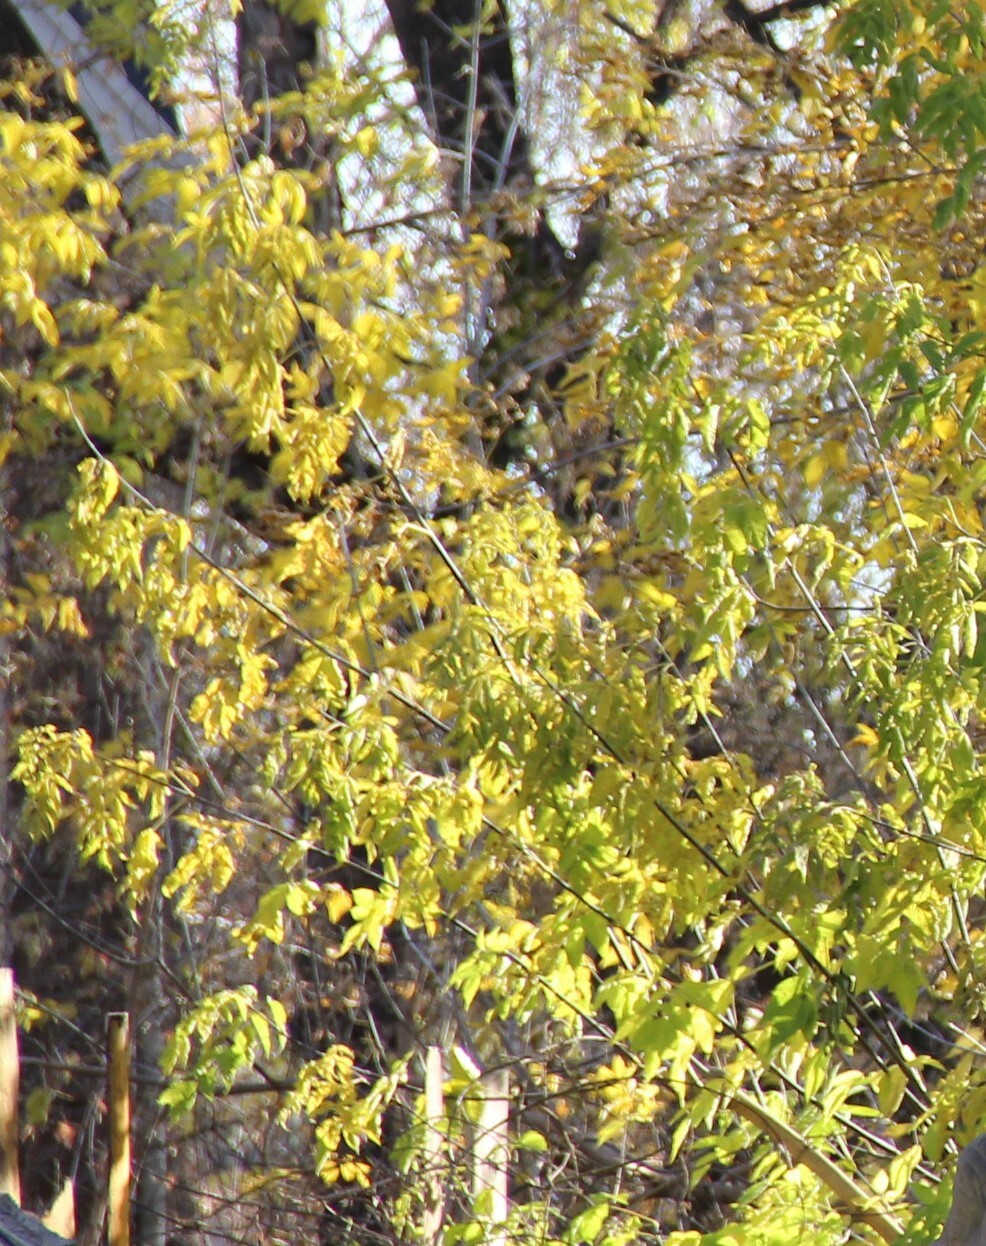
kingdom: Plantae
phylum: Tracheophyta
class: Magnoliopsida
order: Sapindales
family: Sapindaceae
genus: Acer
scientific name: Acer negundo
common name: Ashleaf maple
